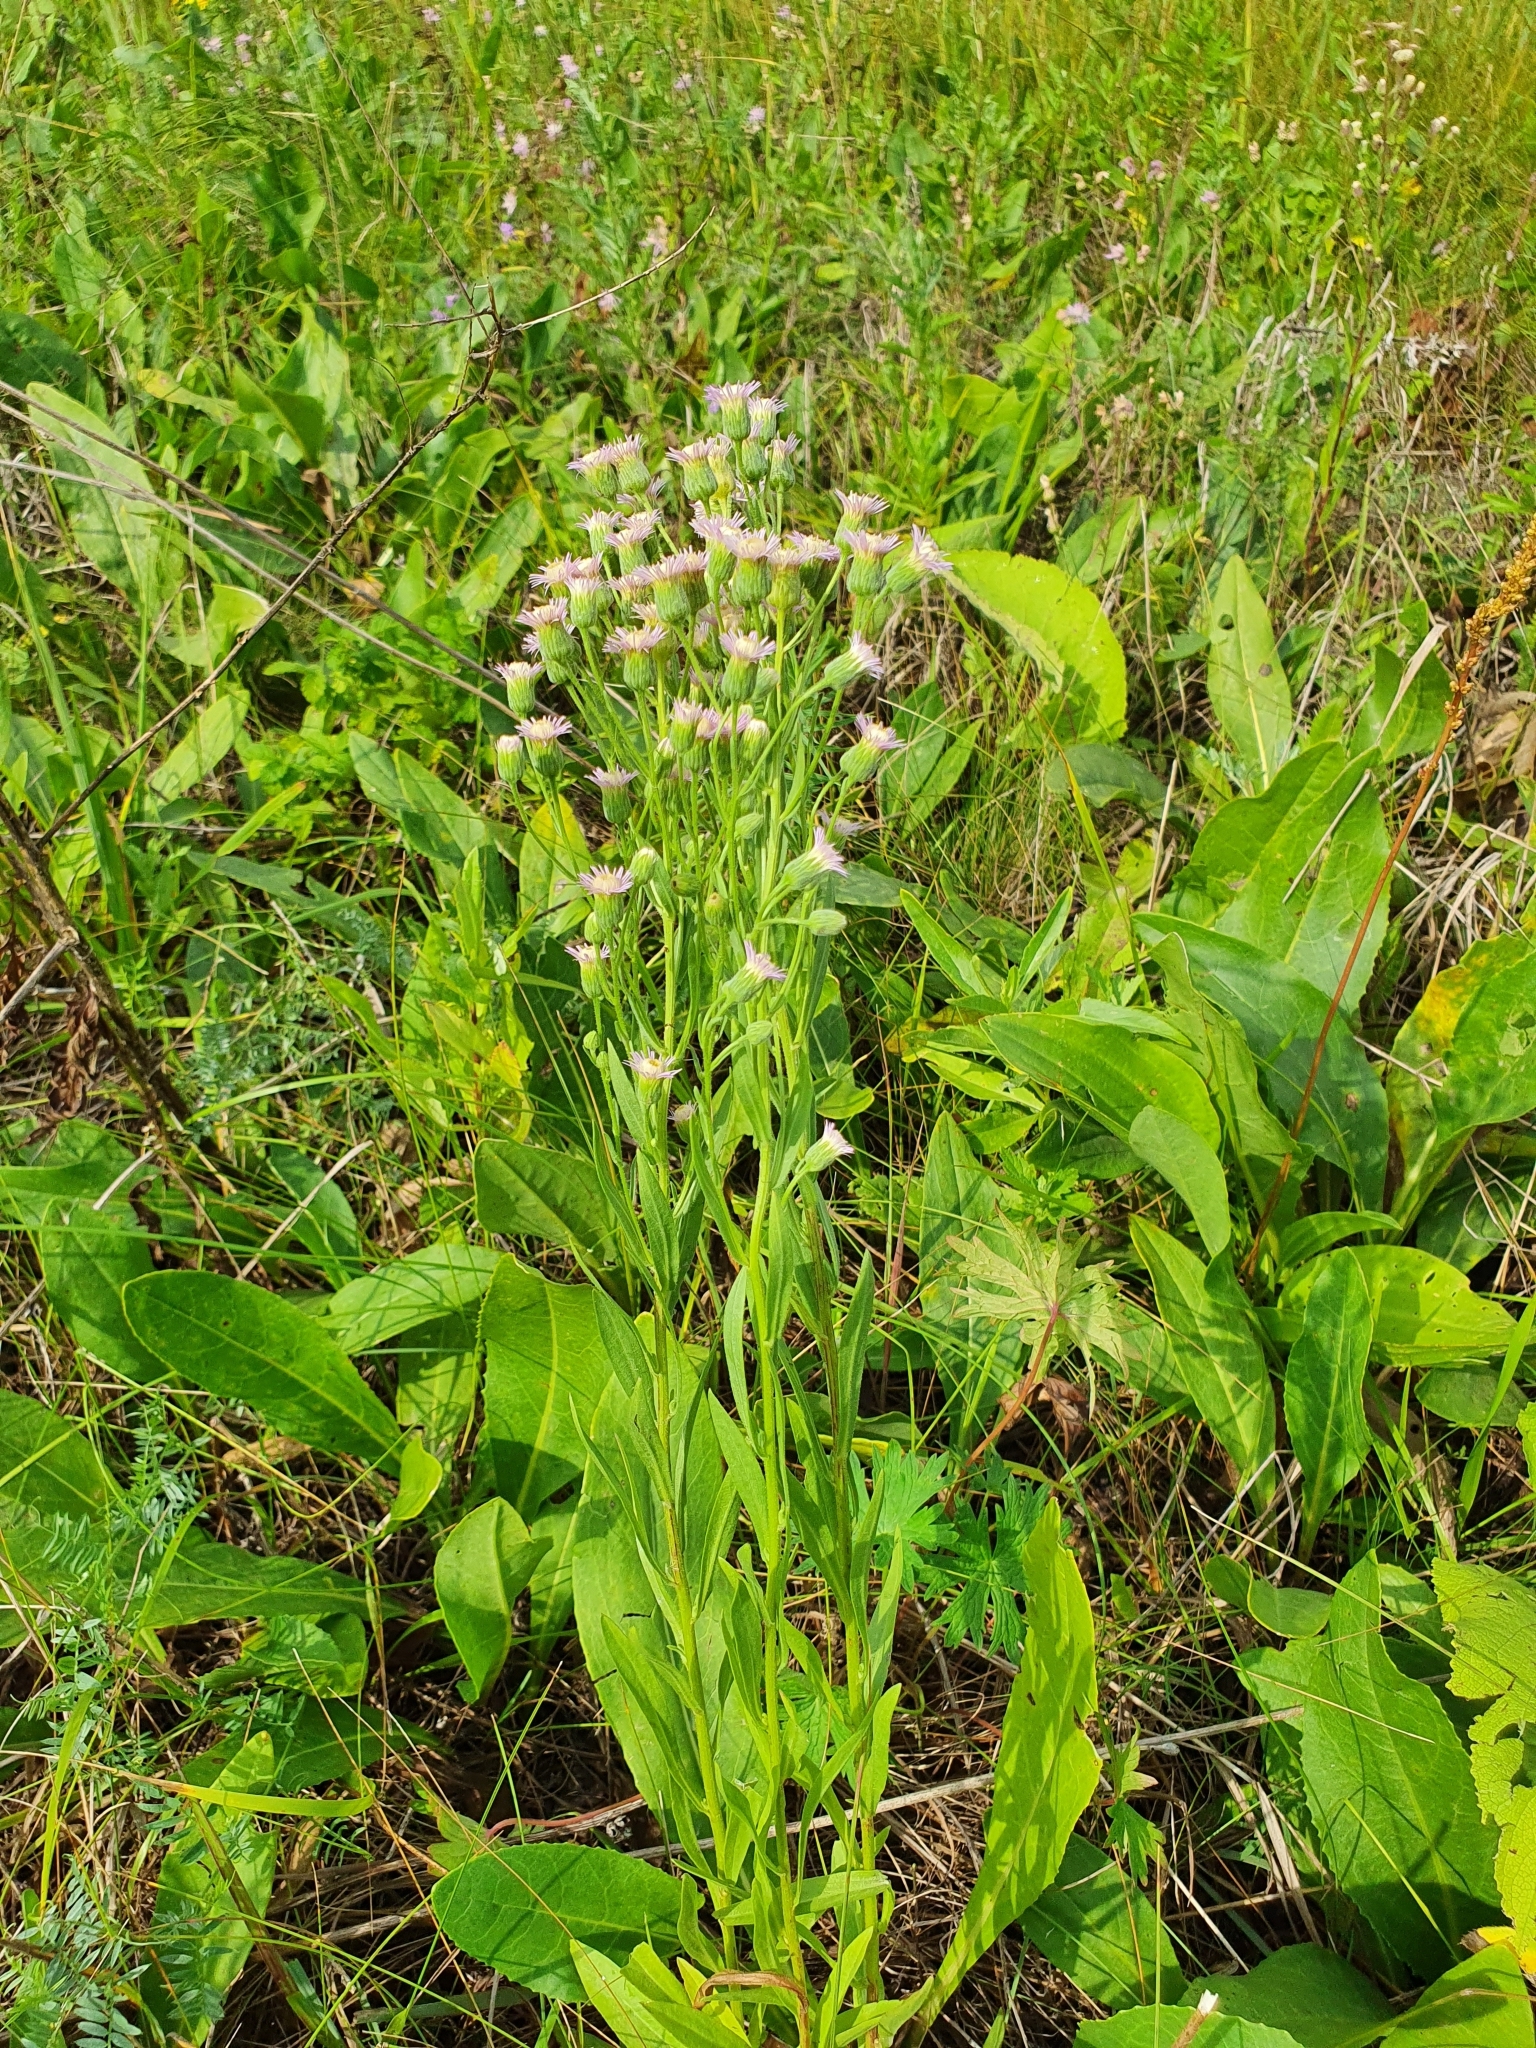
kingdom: Plantae
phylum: Tracheophyta
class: Magnoliopsida
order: Asterales
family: Asteraceae
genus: Erigeron
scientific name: Erigeron acris
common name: Blue fleabane
